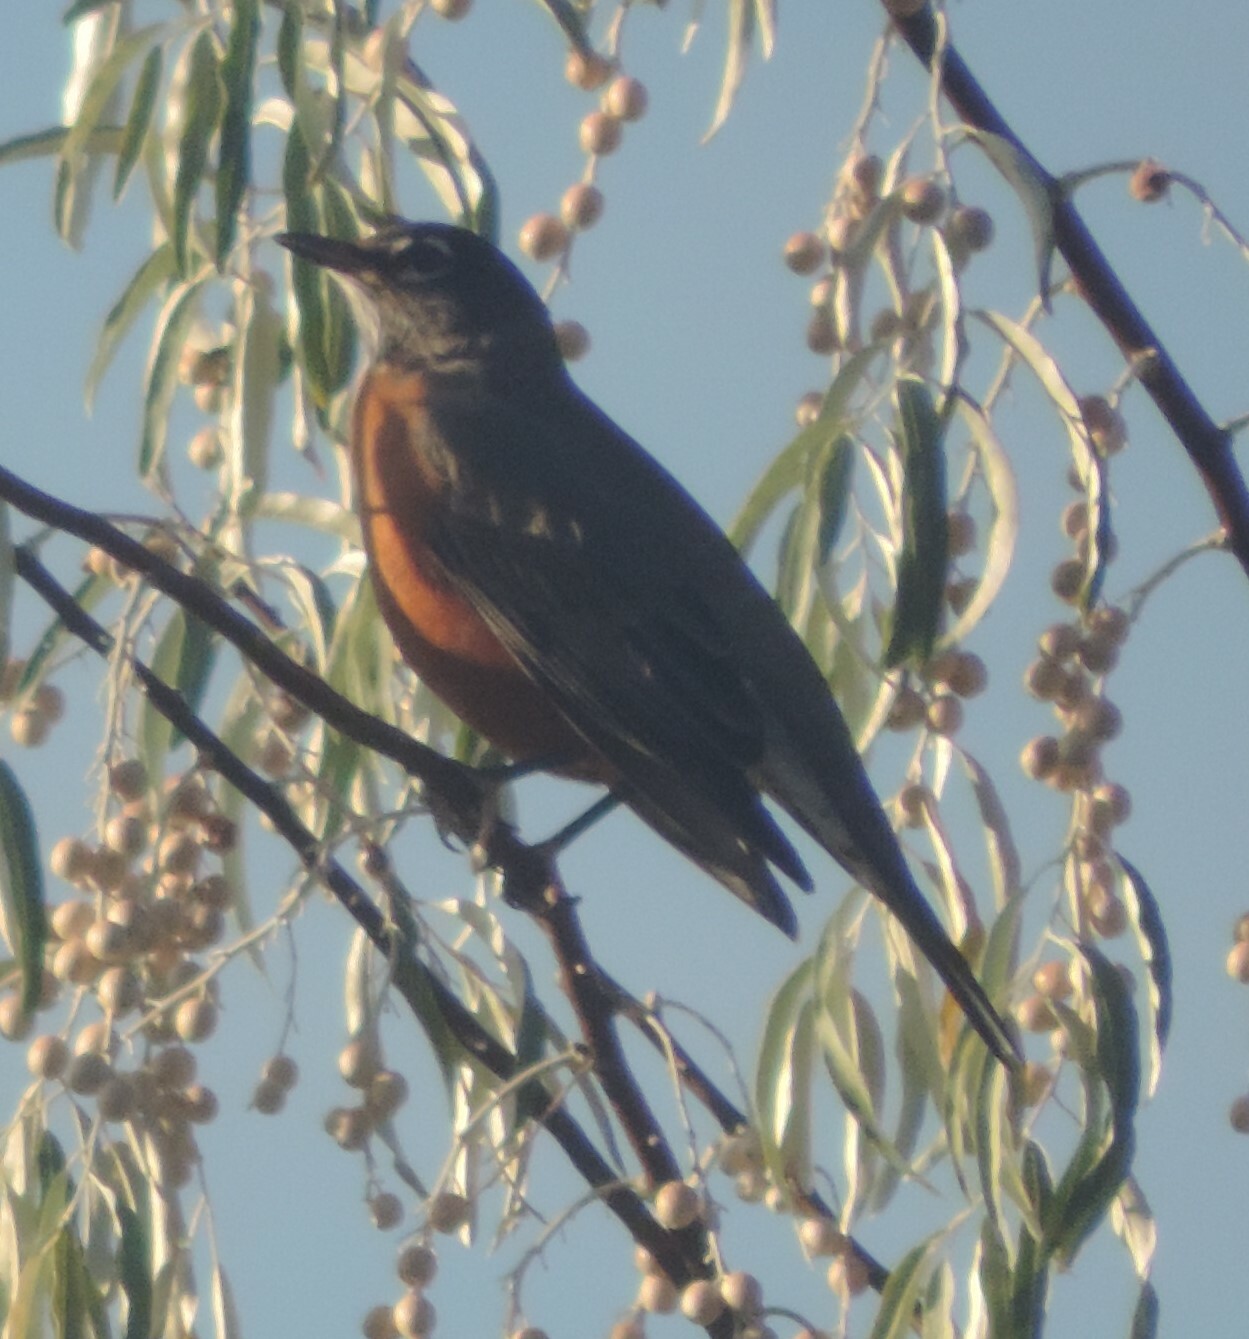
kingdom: Animalia
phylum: Chordata
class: Aves
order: Passeriformes
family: Turdidae
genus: Turdus
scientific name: Turdus migratorius
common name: American robin
